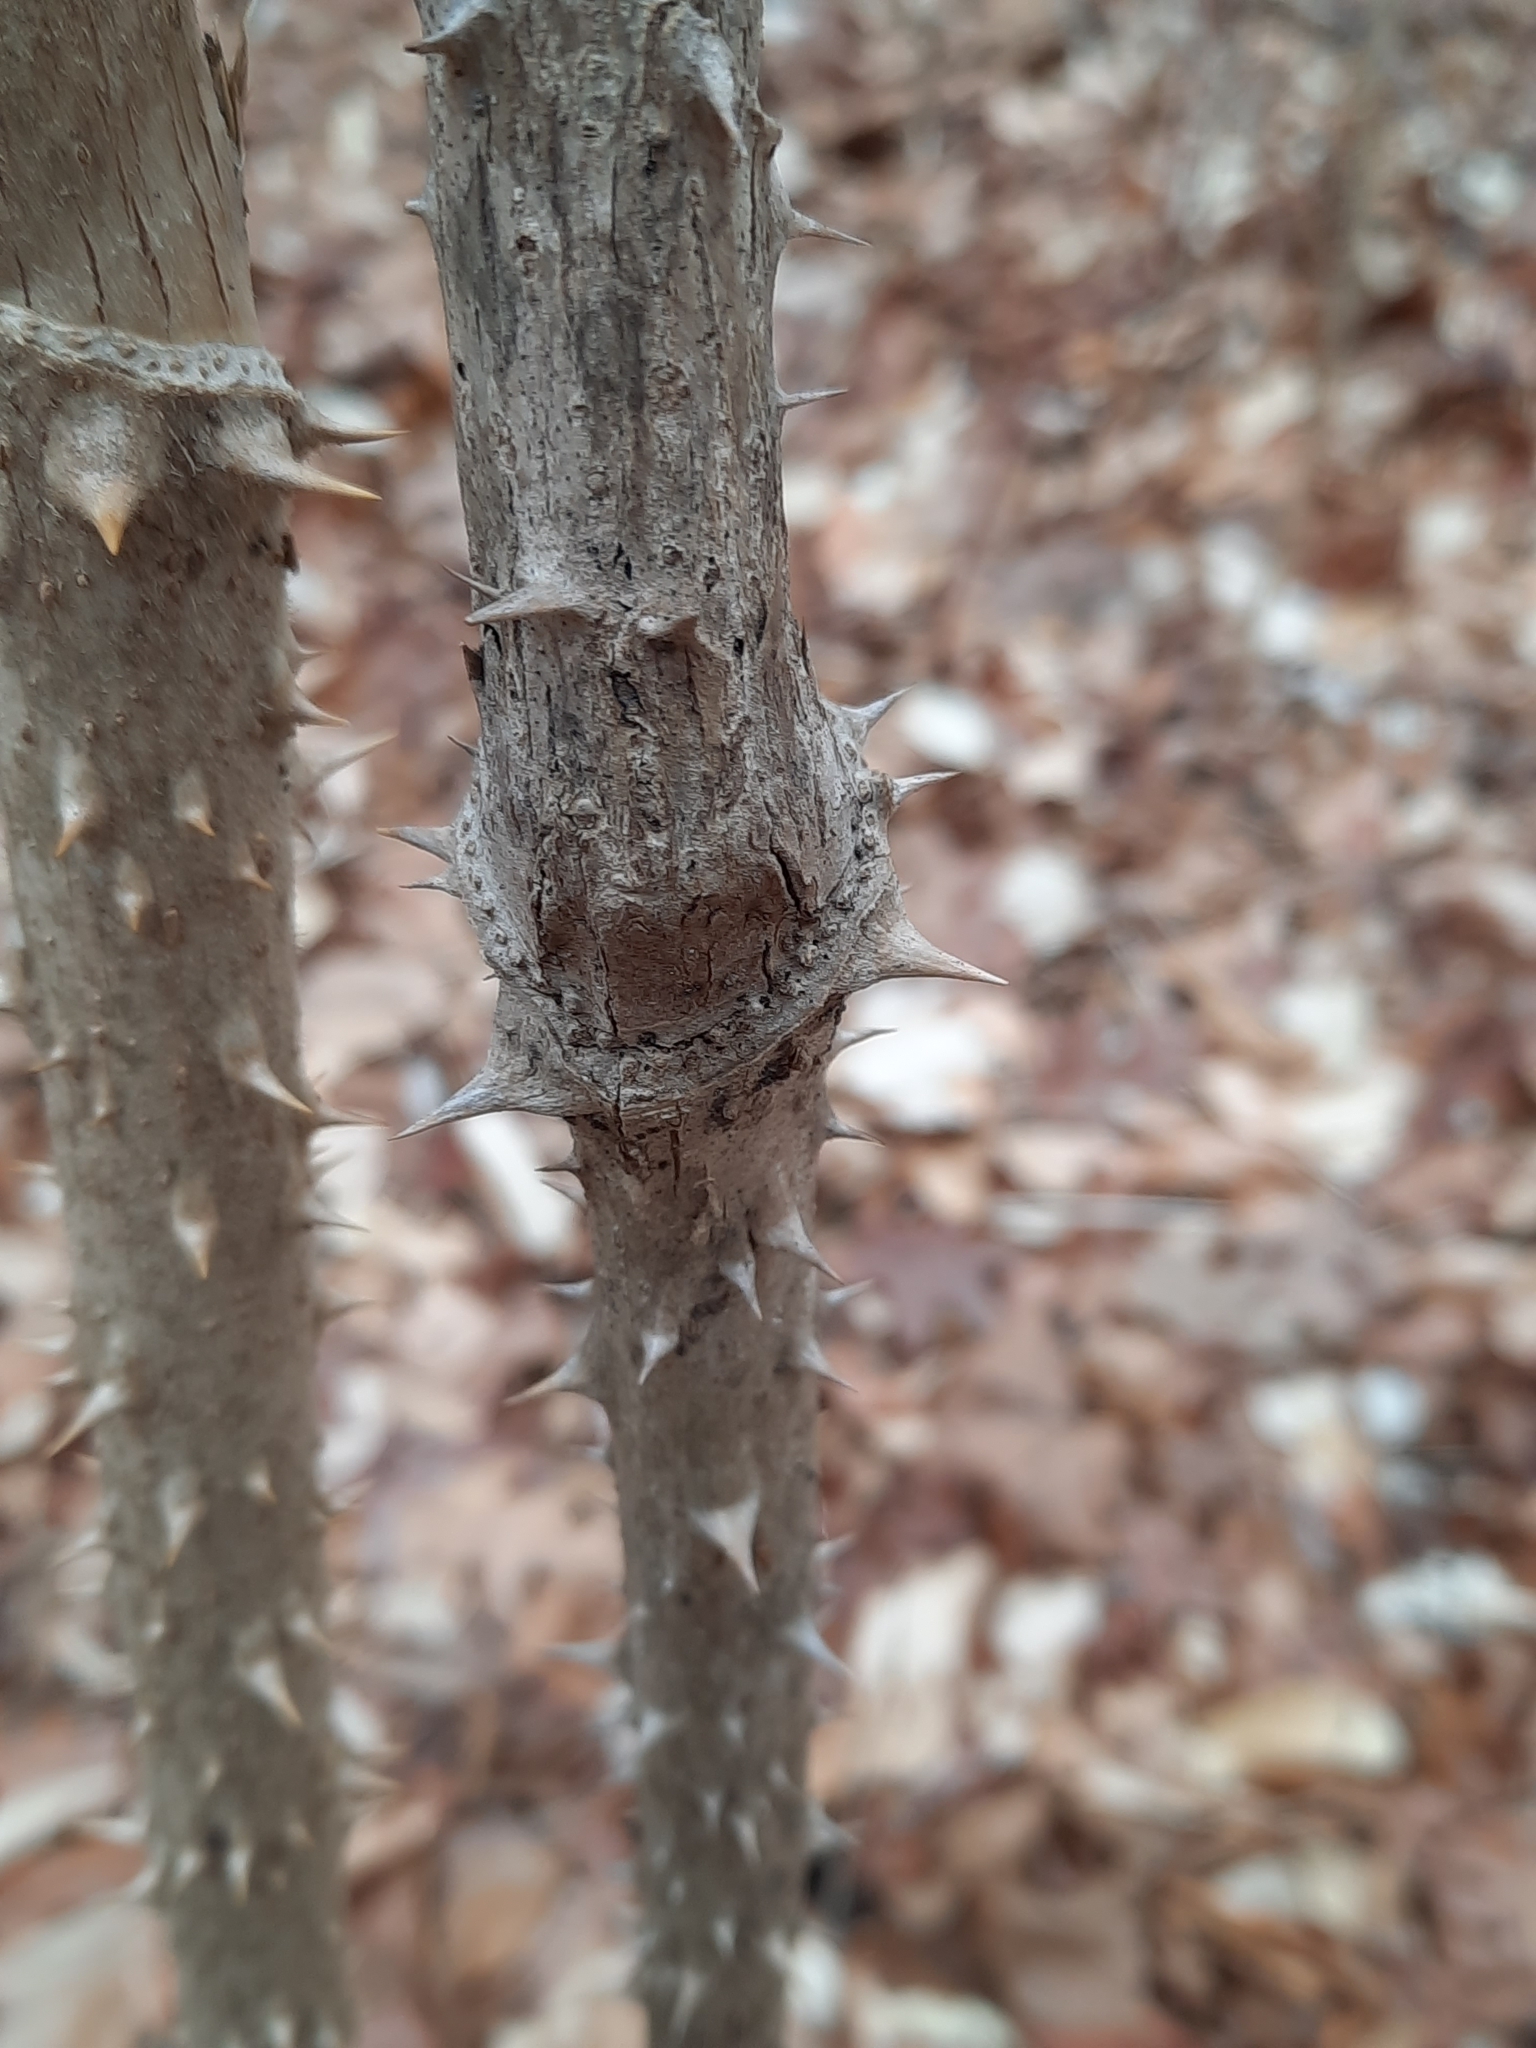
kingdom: Plantae
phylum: Tracheophyta
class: Magnoliopsida
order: Apiales
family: Araliaceae
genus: Aralia
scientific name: Aralia elata
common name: Japanese angelica-tree
